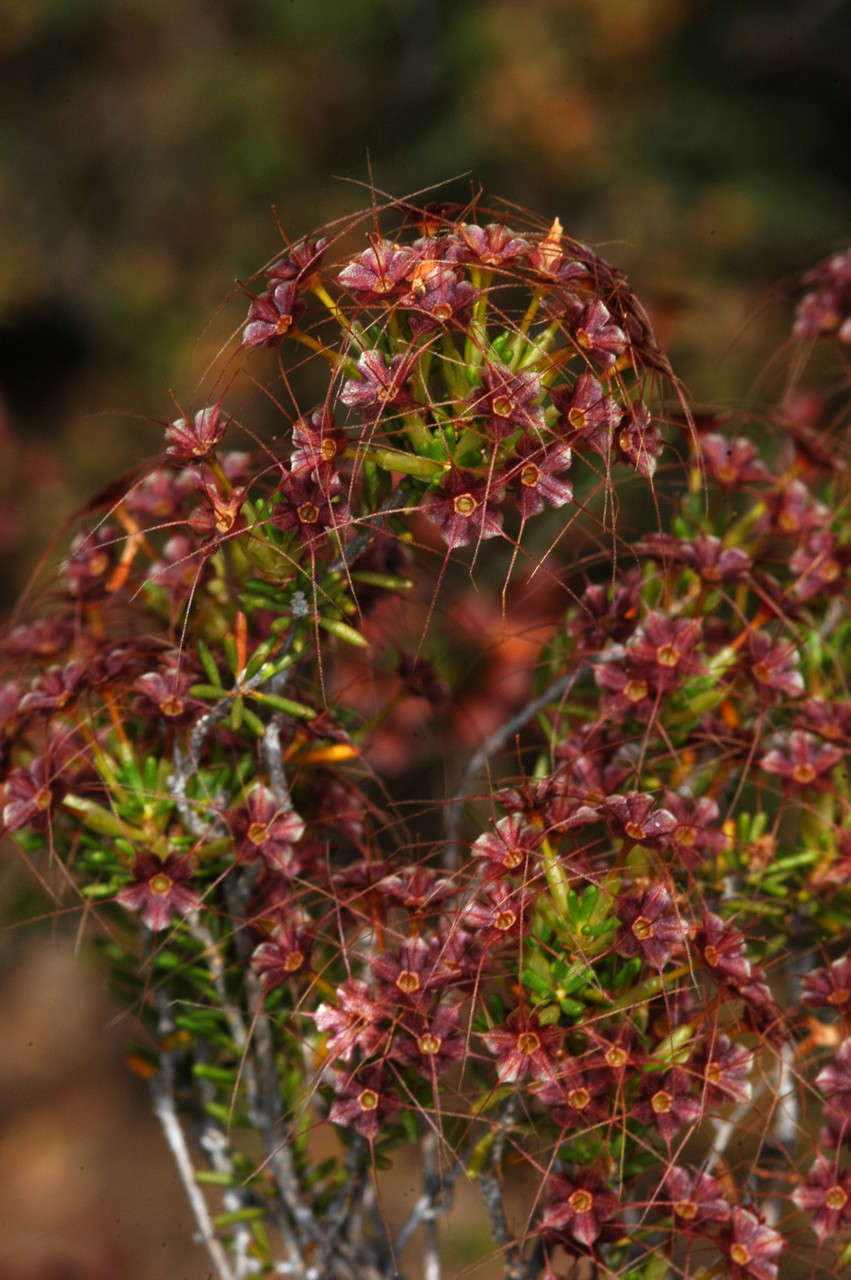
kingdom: Plantae
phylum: Tracheophyta
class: Magnoliopsida
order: Myrtales
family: Myrtaceae
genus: Calytrix
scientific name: Calytrix tetragona
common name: Common fringe myrtle
